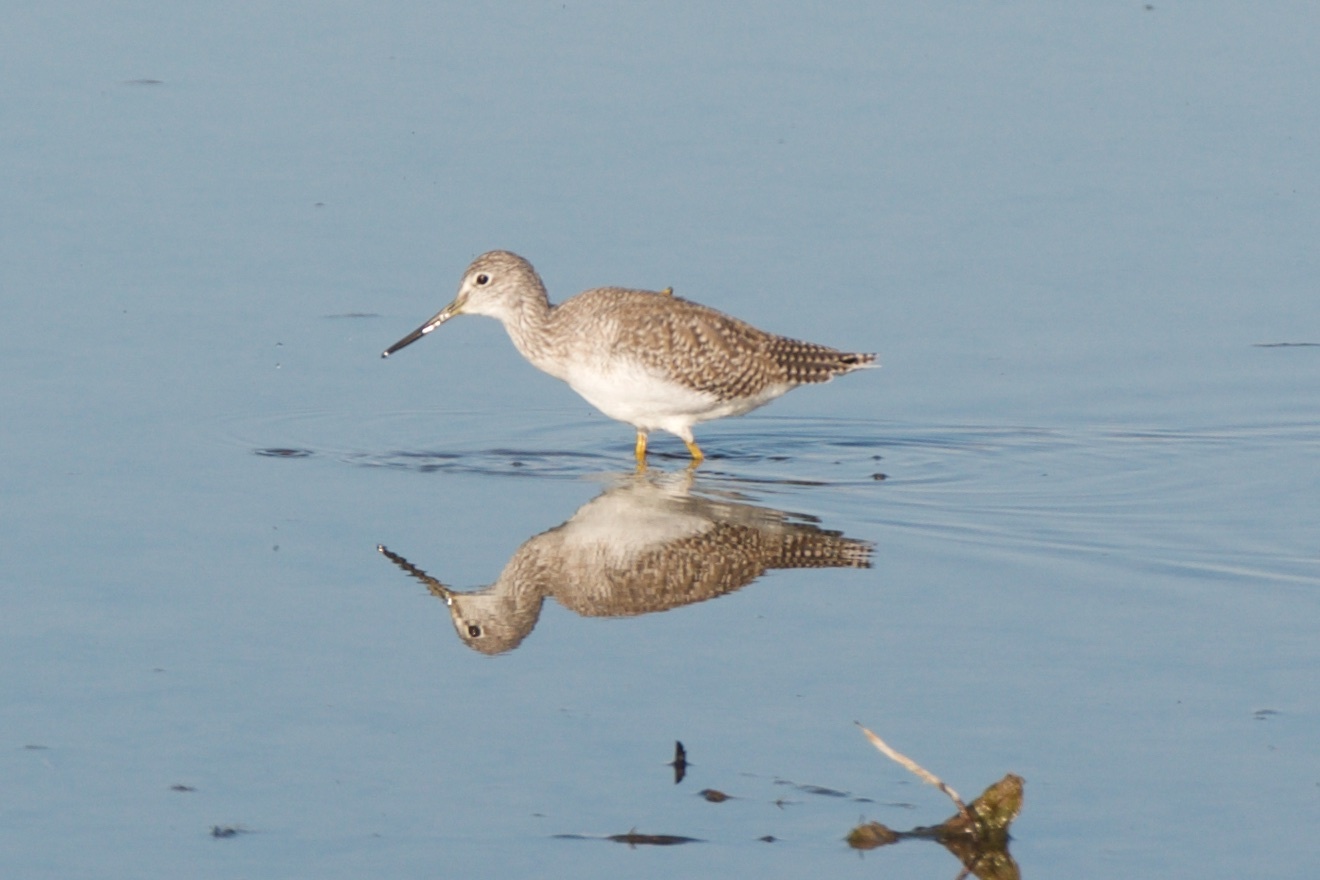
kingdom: Animalia
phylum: Chordata
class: Aves
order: Charadriiformes
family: Scolopacidae
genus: Tringa
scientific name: Tringa melanoleuca
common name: Greater yellowlegs
